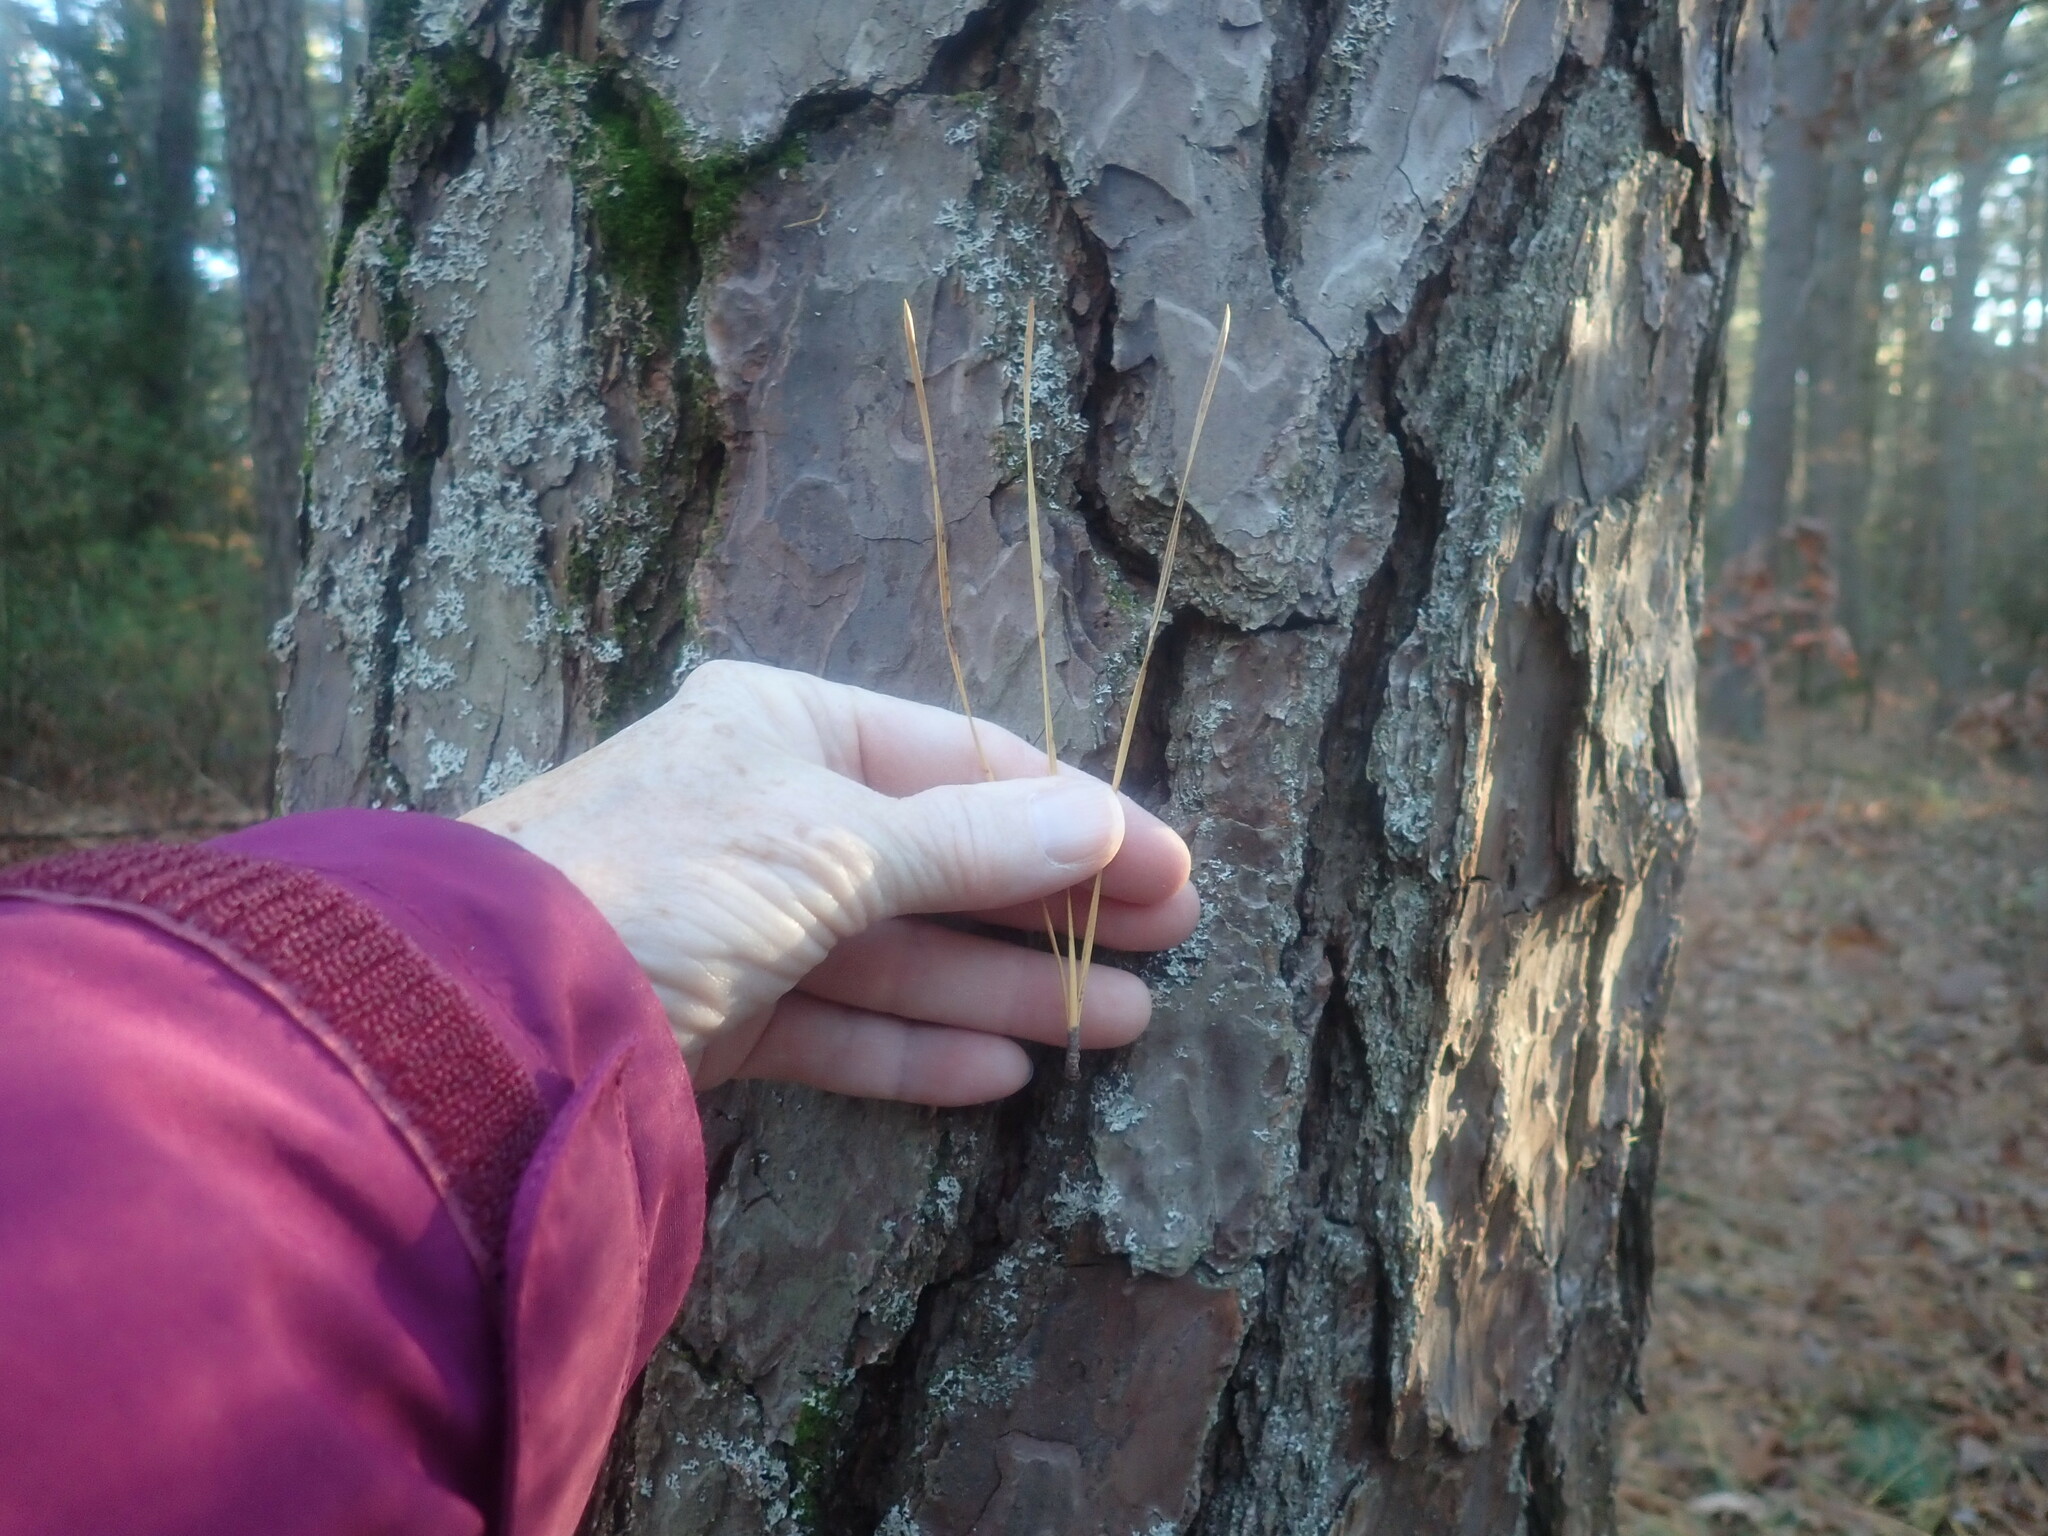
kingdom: Plantae
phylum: Tracheophyta
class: Pinopsida
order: Pinales
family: Pinaceae
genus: Pinus
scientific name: Pinus rigida
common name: Pitch pine
